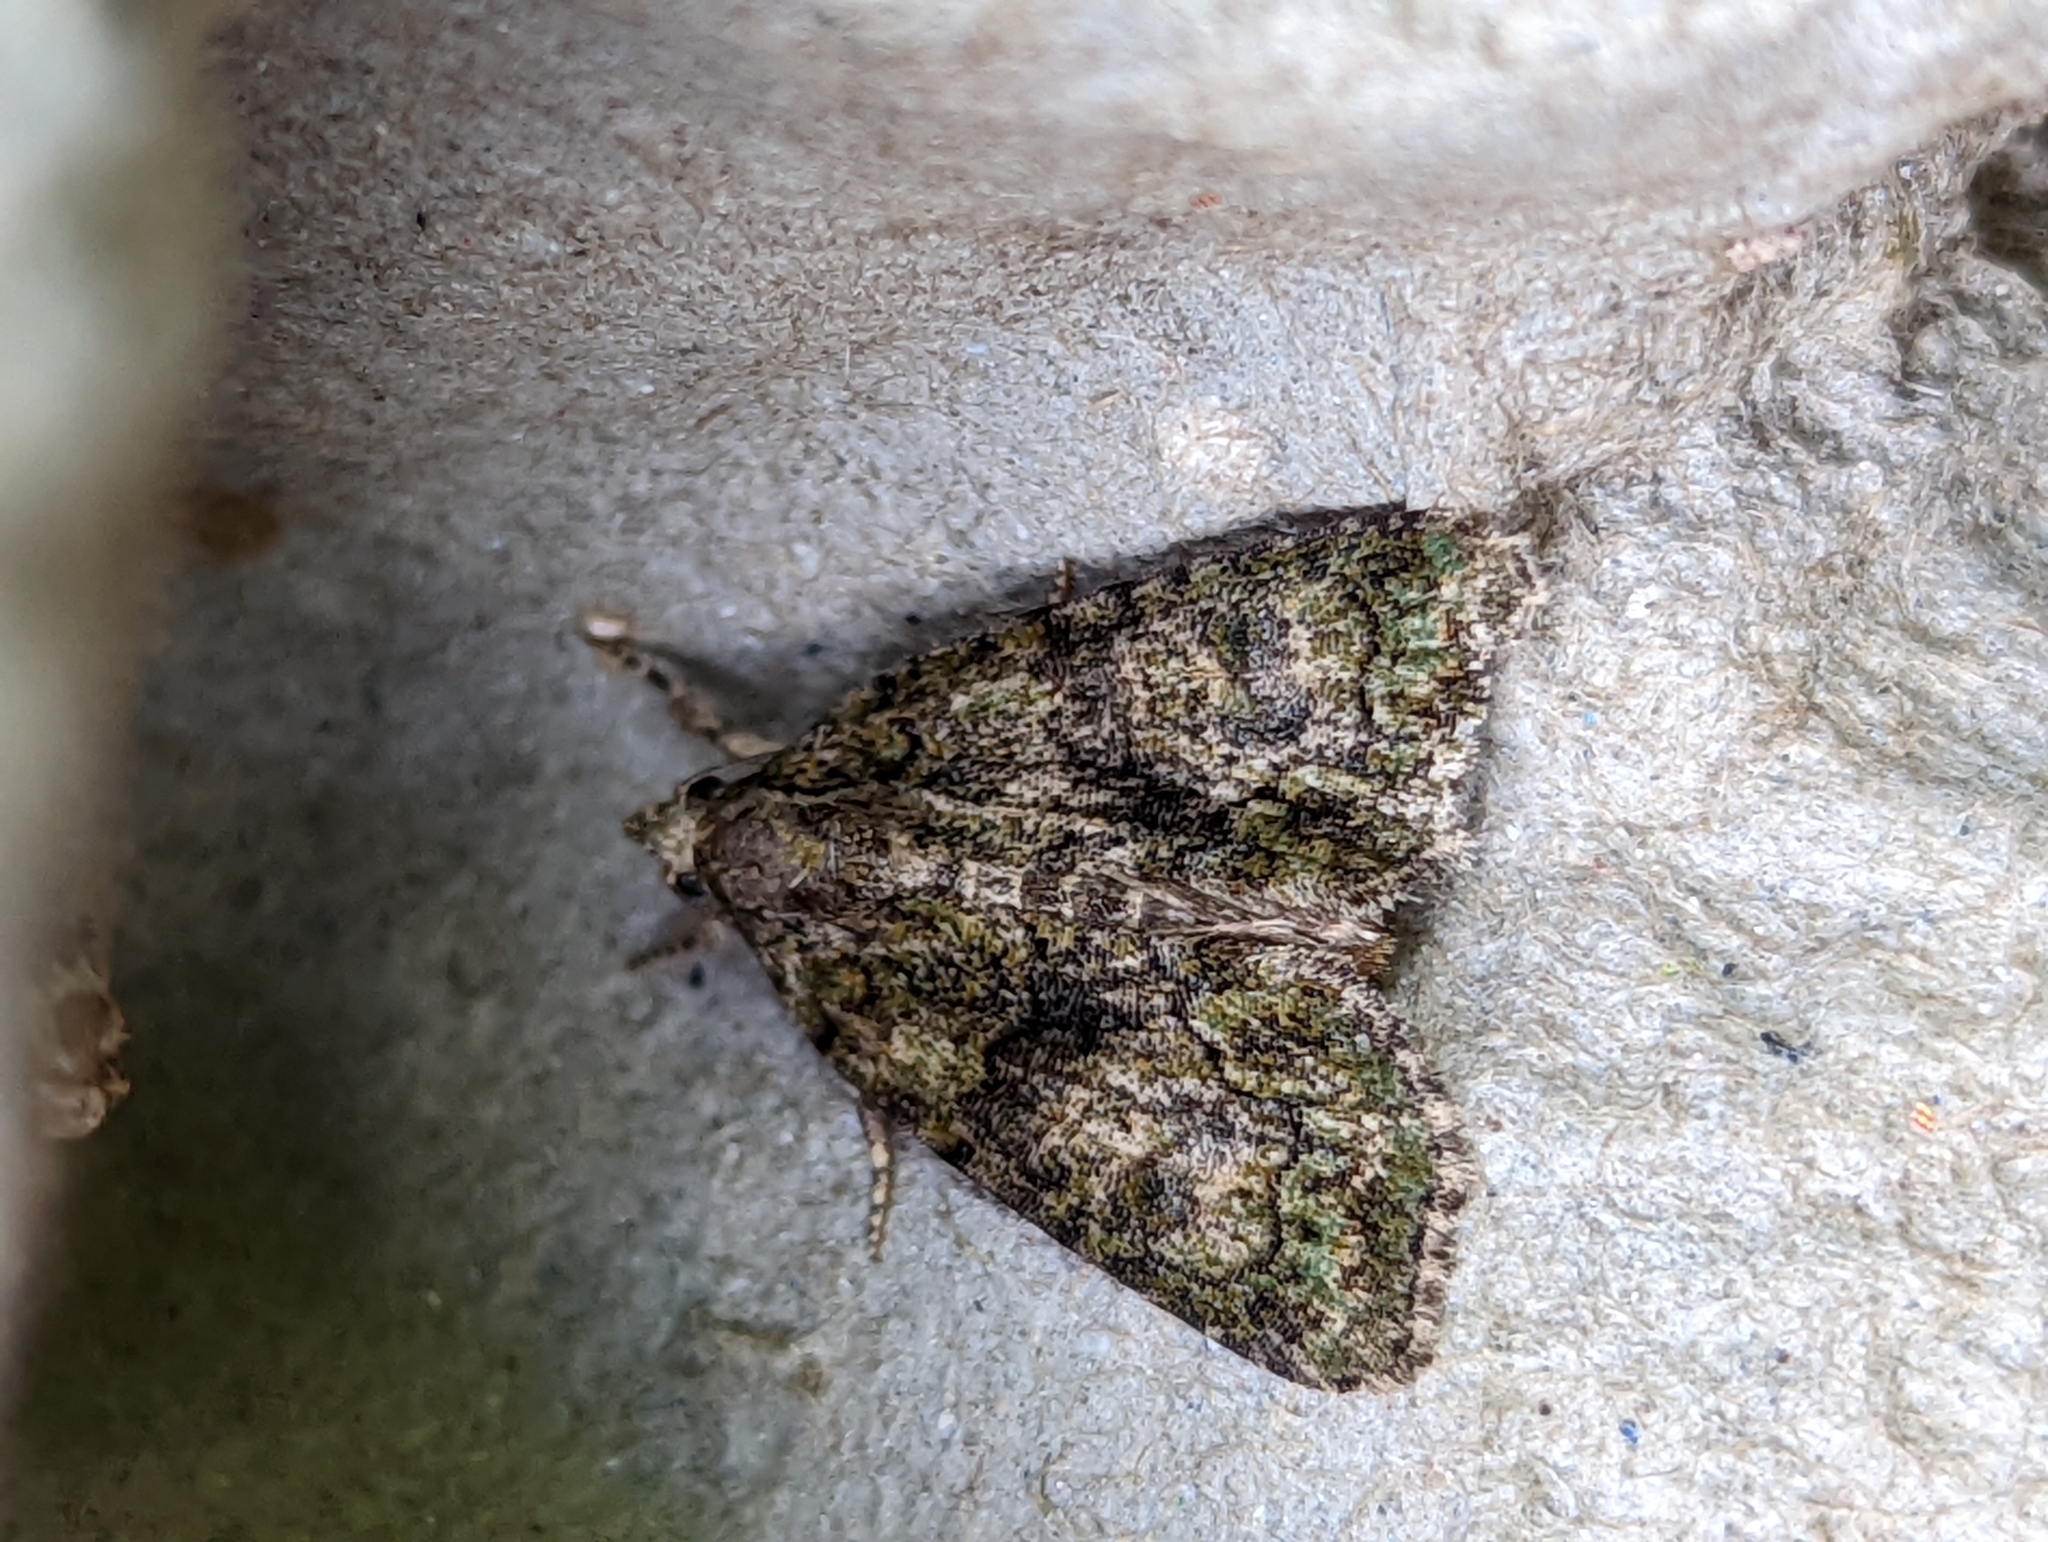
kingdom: Animalia
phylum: Arthropoda
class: Insecta
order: Lepidoptera
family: Noctuidae
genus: Cryphia
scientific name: Cryphia algae
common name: Tree-lichen beauty
